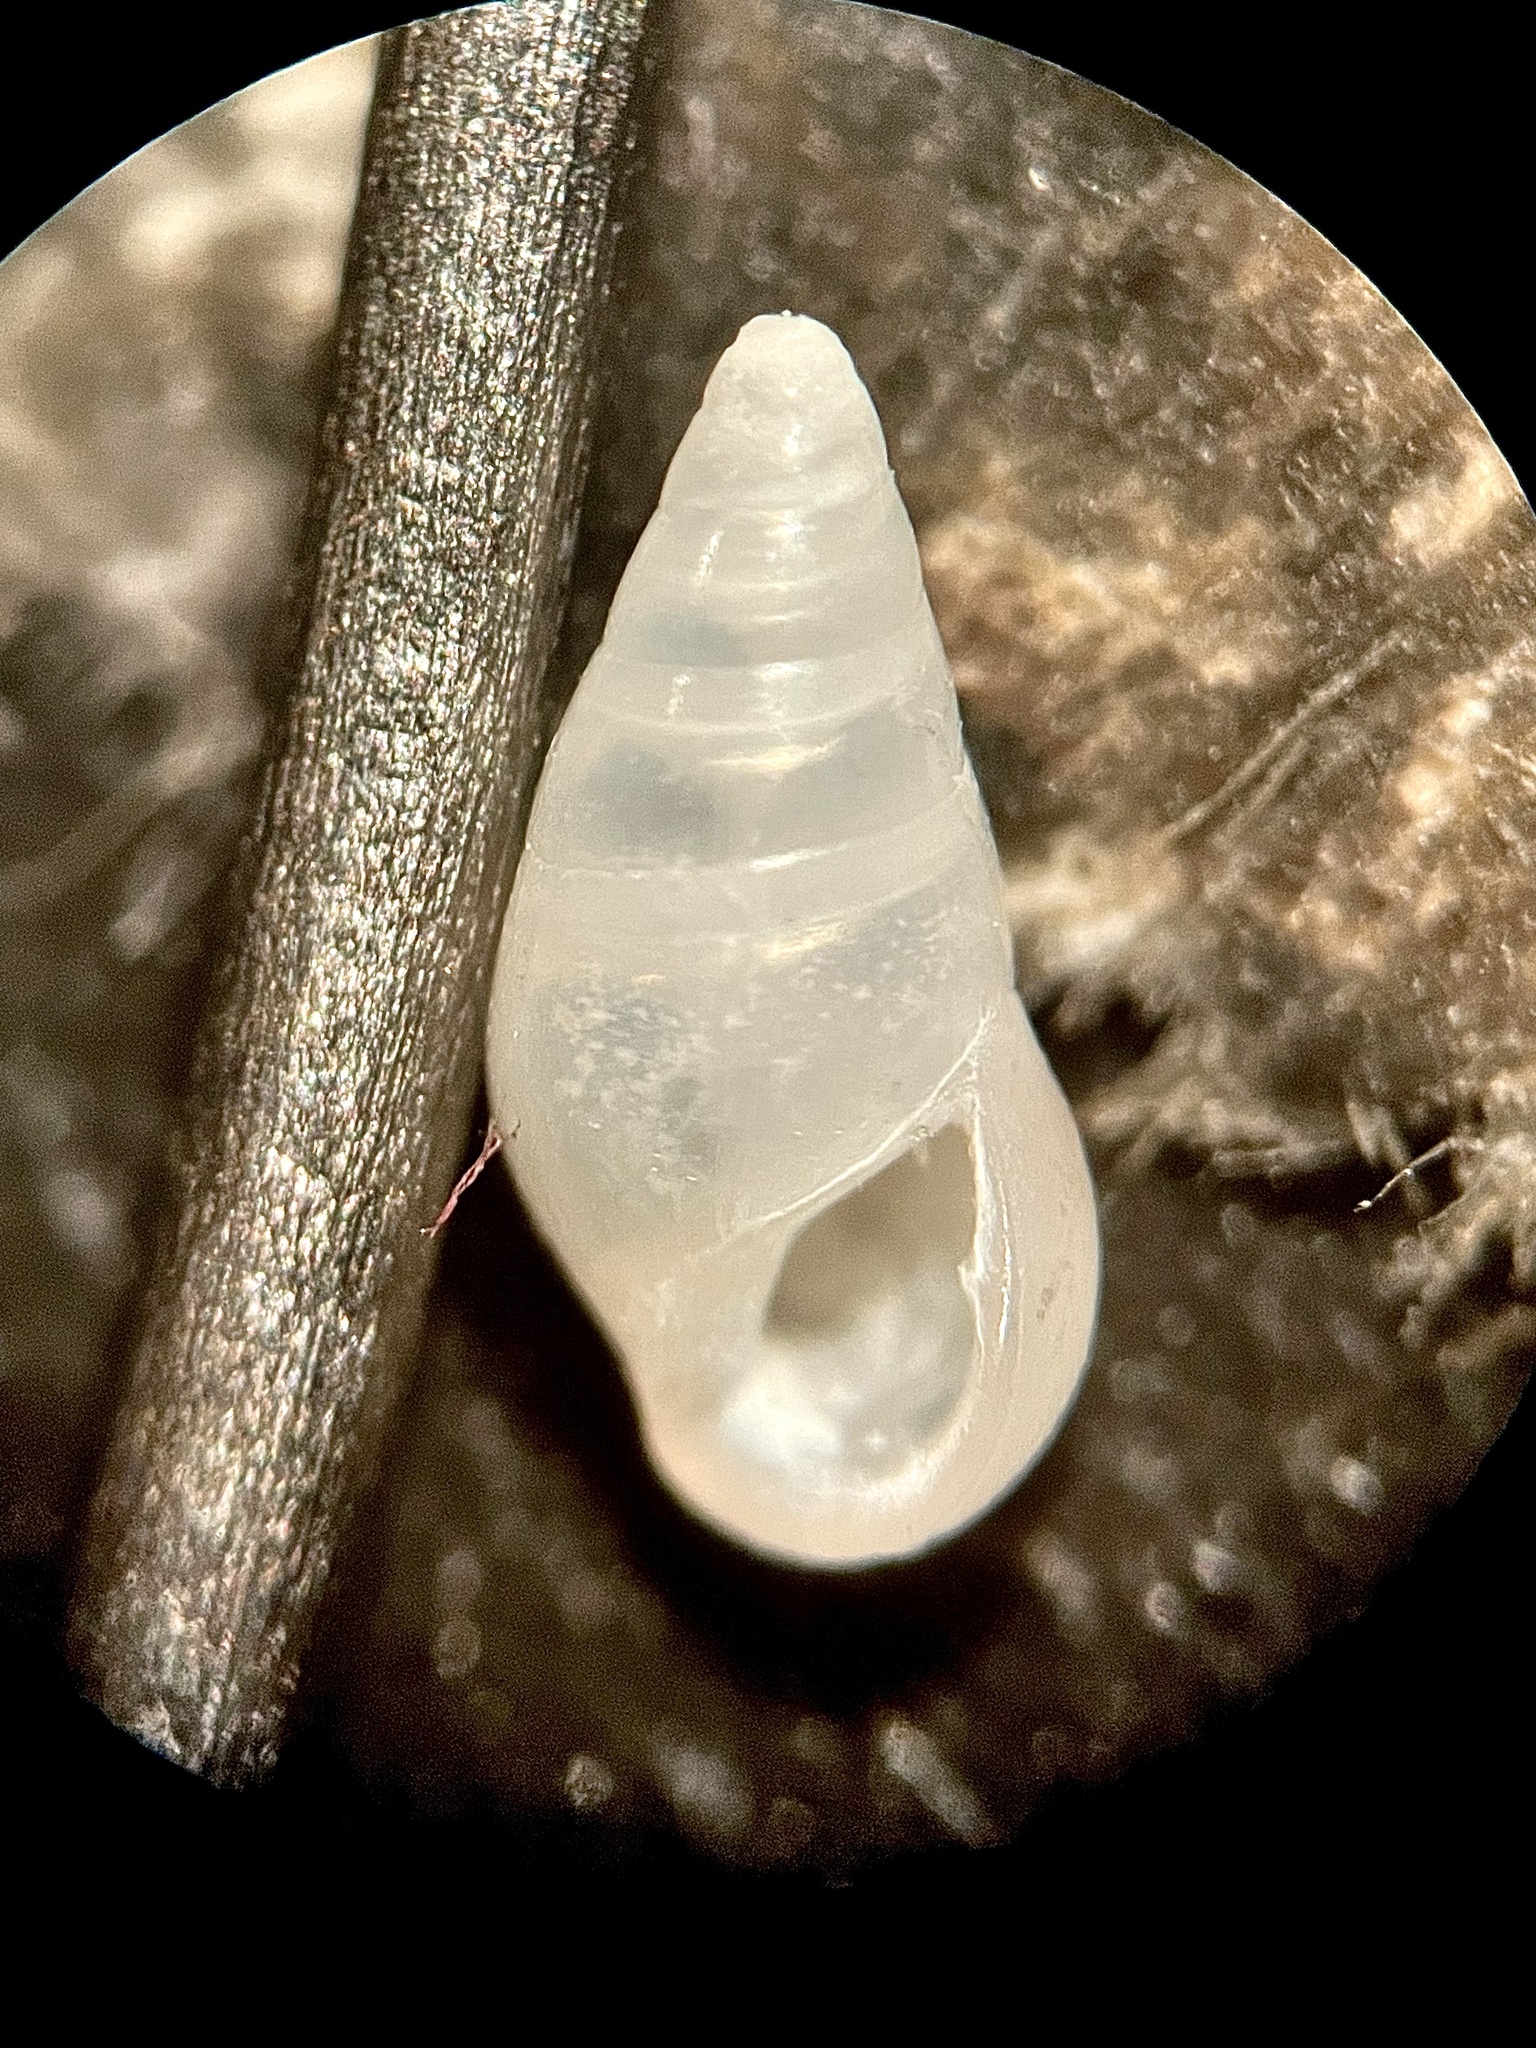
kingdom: Animalia
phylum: Mollusca
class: Gastropoda
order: Littorinimorpha
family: Zebinidae
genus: Zebina
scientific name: Zebina browniana
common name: Smooth risso
